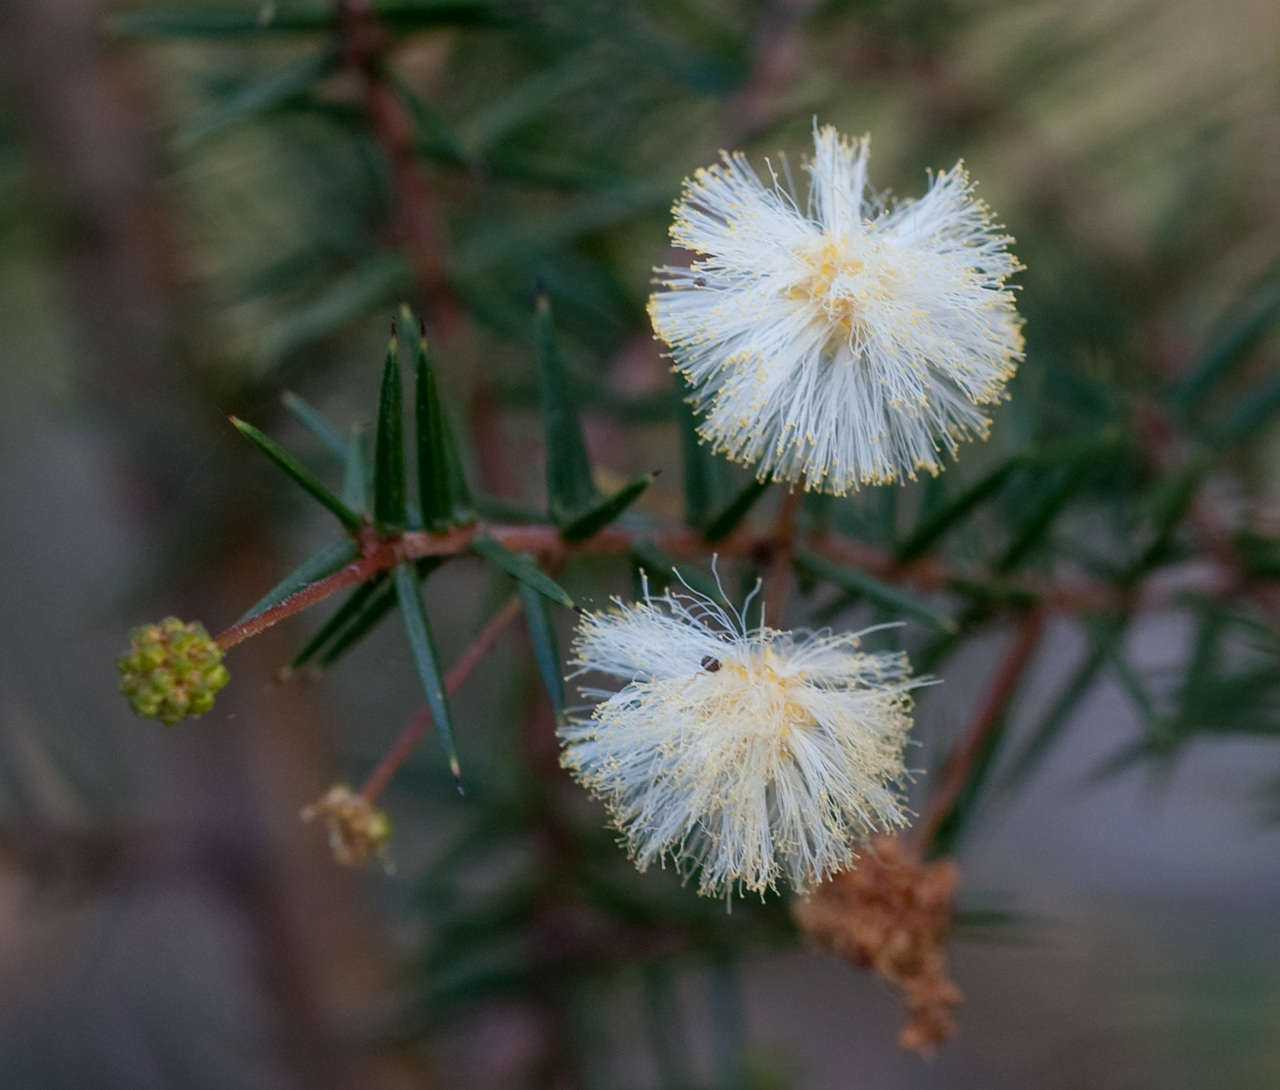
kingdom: Plantae
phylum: Tracheophyta
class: Magnoliopsida
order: Fabales
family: Fabaceae
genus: Acacia
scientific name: Acacia ulicifolia
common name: Juniper wattle
